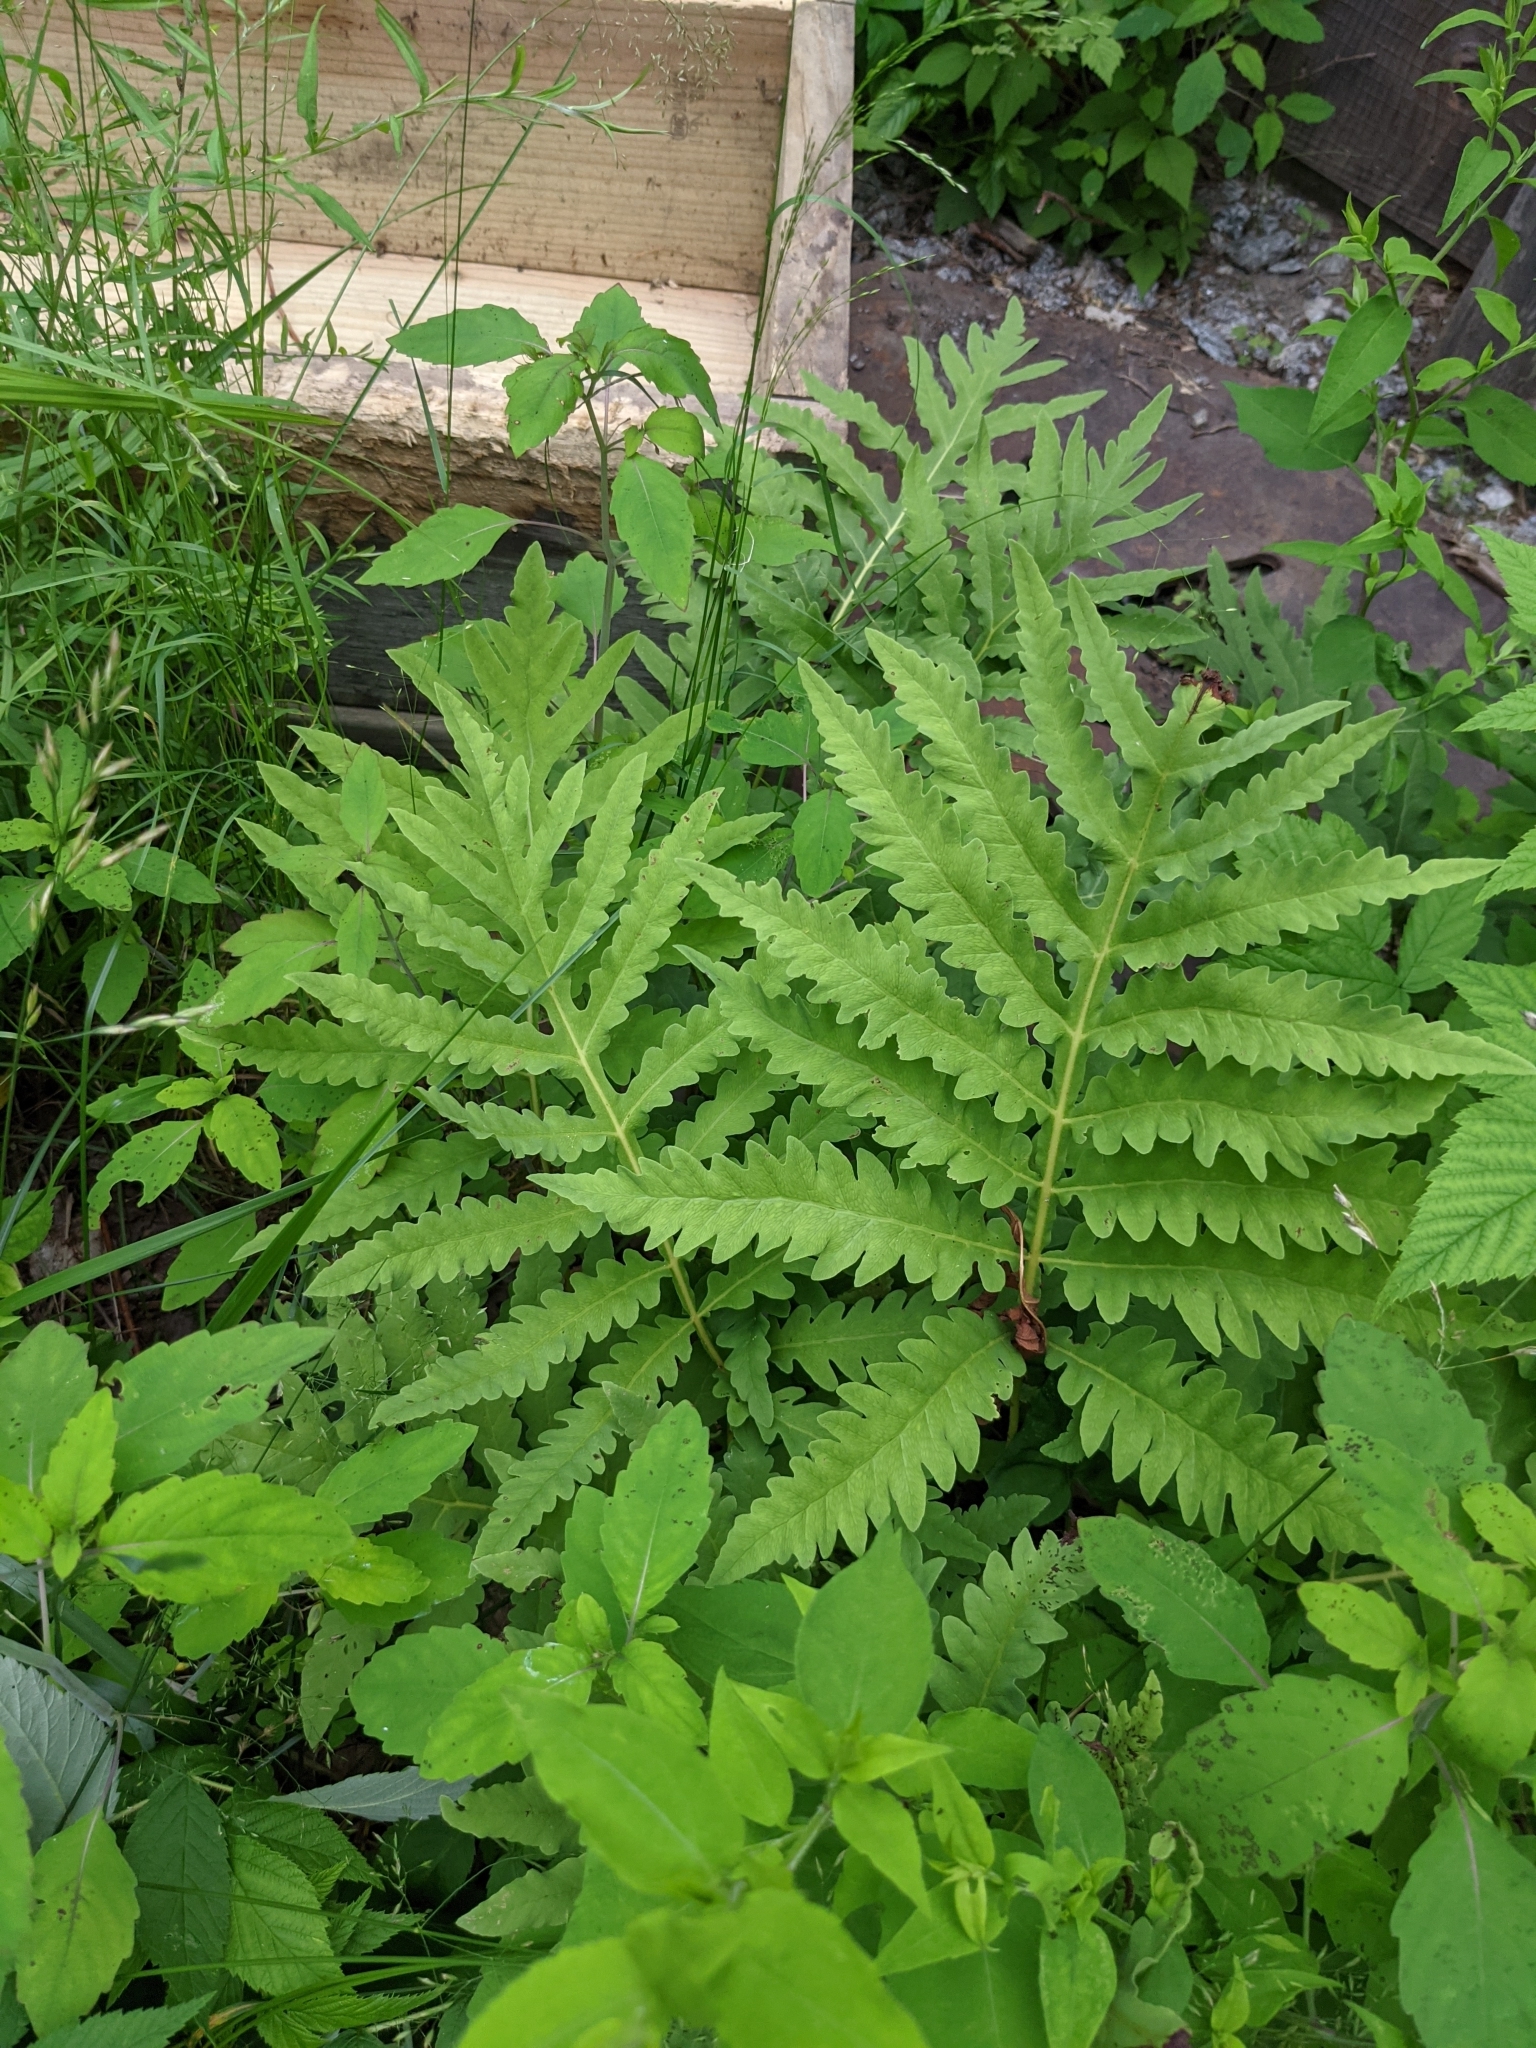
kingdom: Plantae
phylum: Tracheophyta
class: Polypodiopsida
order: Polypodiales
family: Onocleaceae
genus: Onoclea
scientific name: Onoclea sensibilis
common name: Sensitive fern
